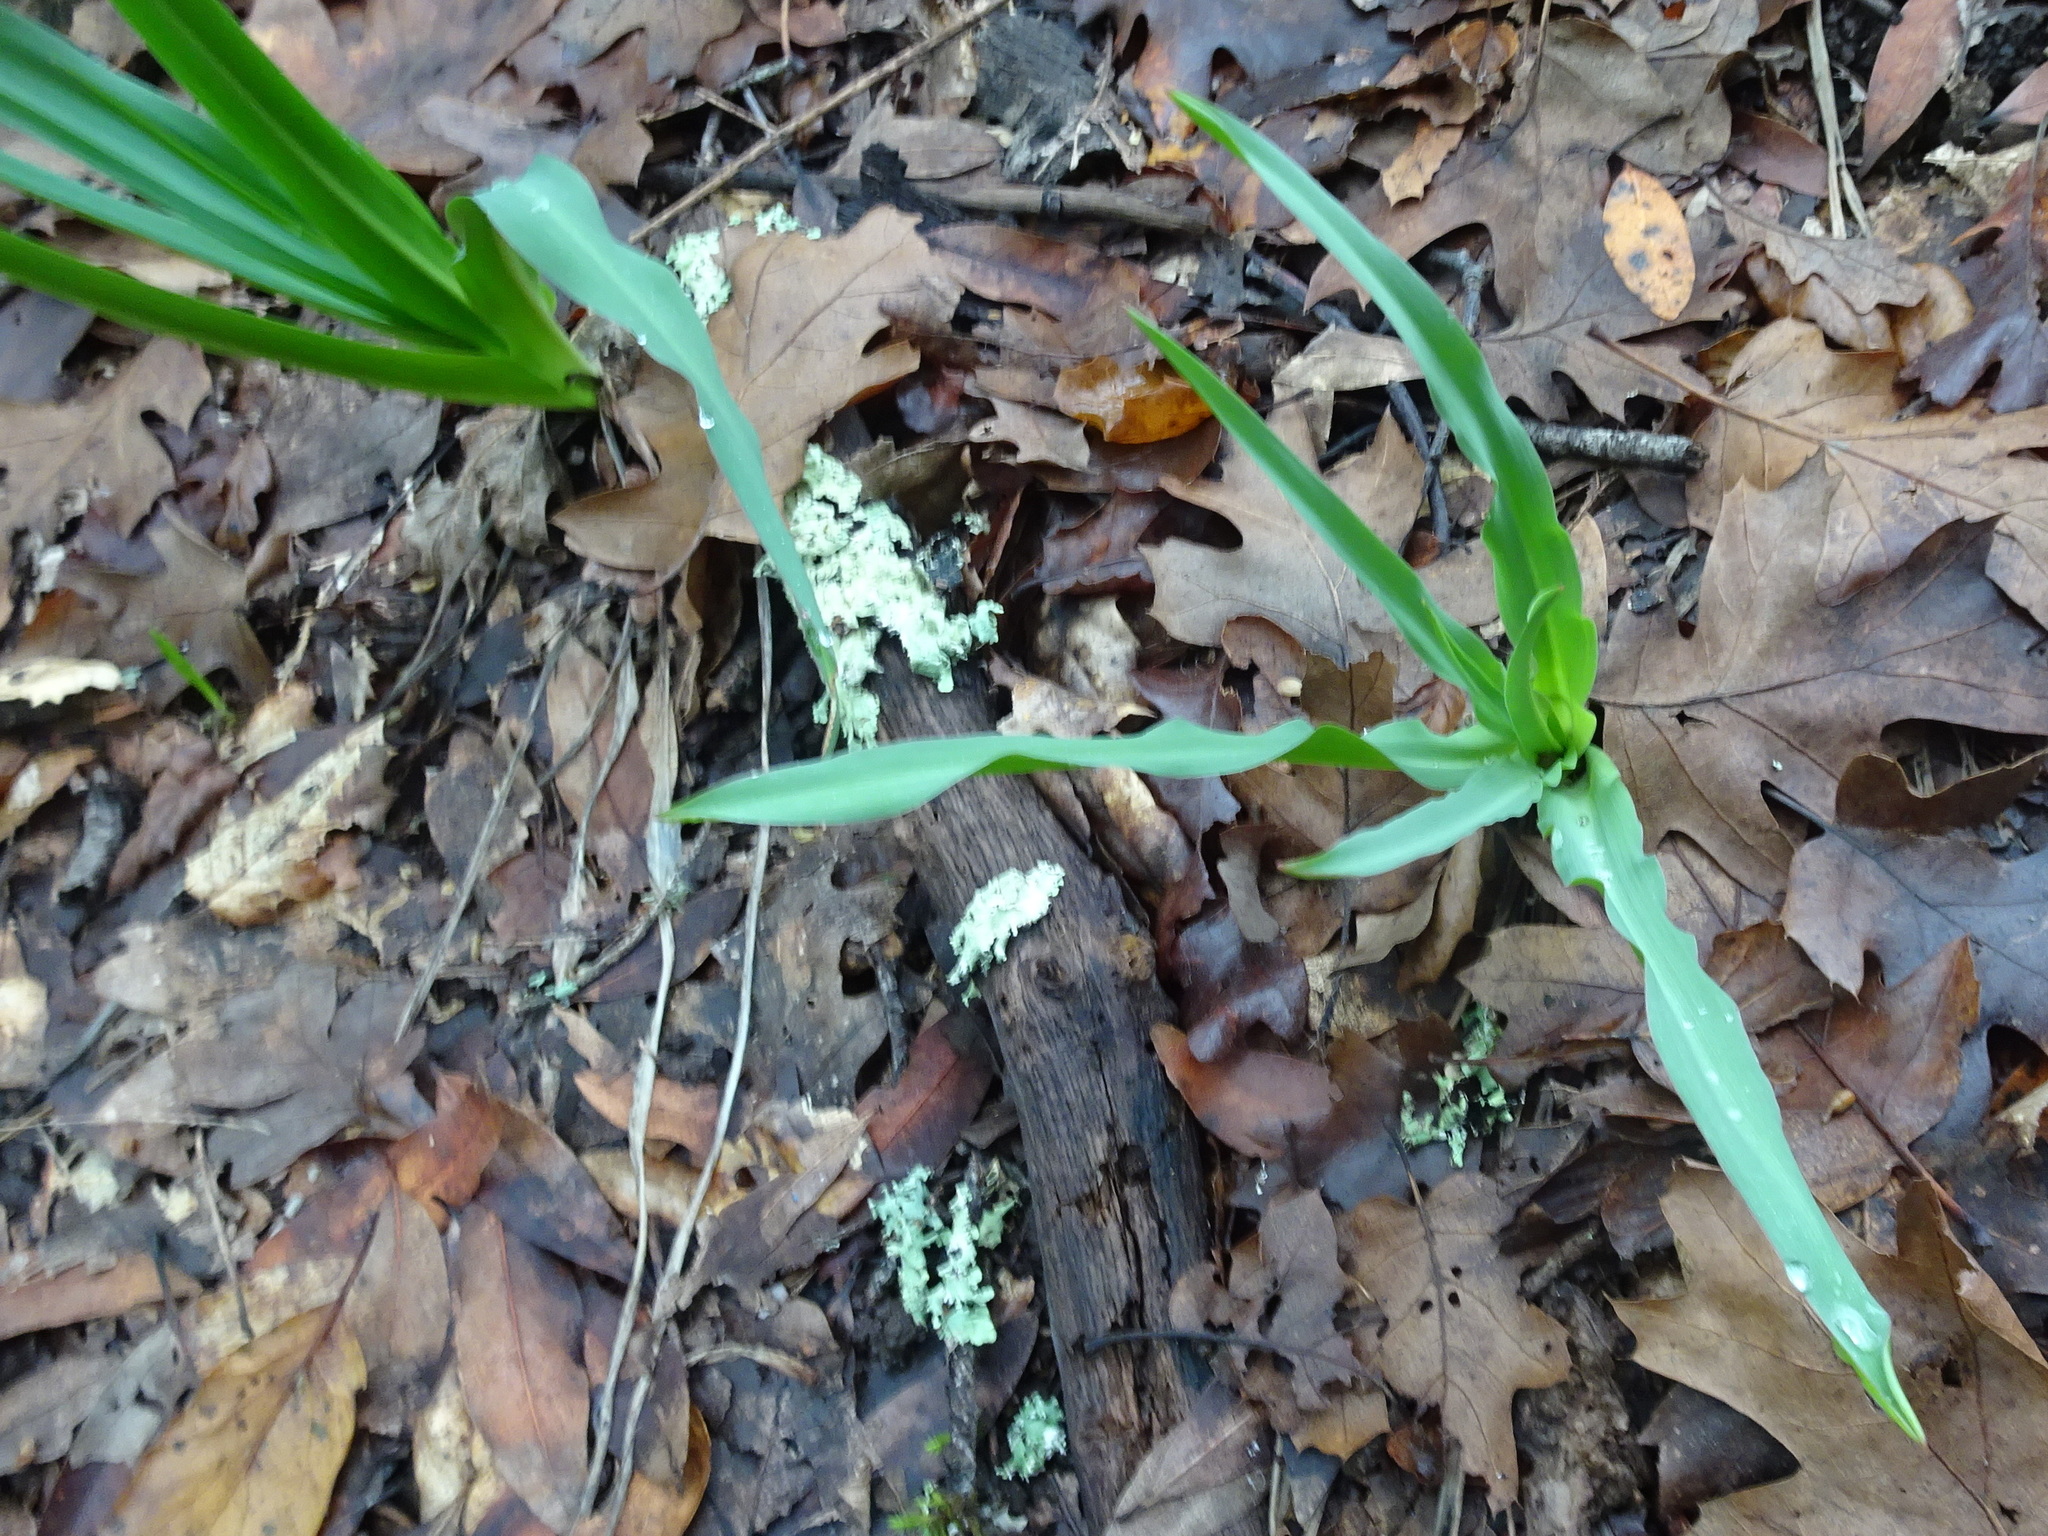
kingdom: Plantae
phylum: Tracheophyta
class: Liliopsida
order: Asparagales
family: Asparagaceae
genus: Chlorogalum
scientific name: Chlorogalum pomeridianum
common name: Amole
